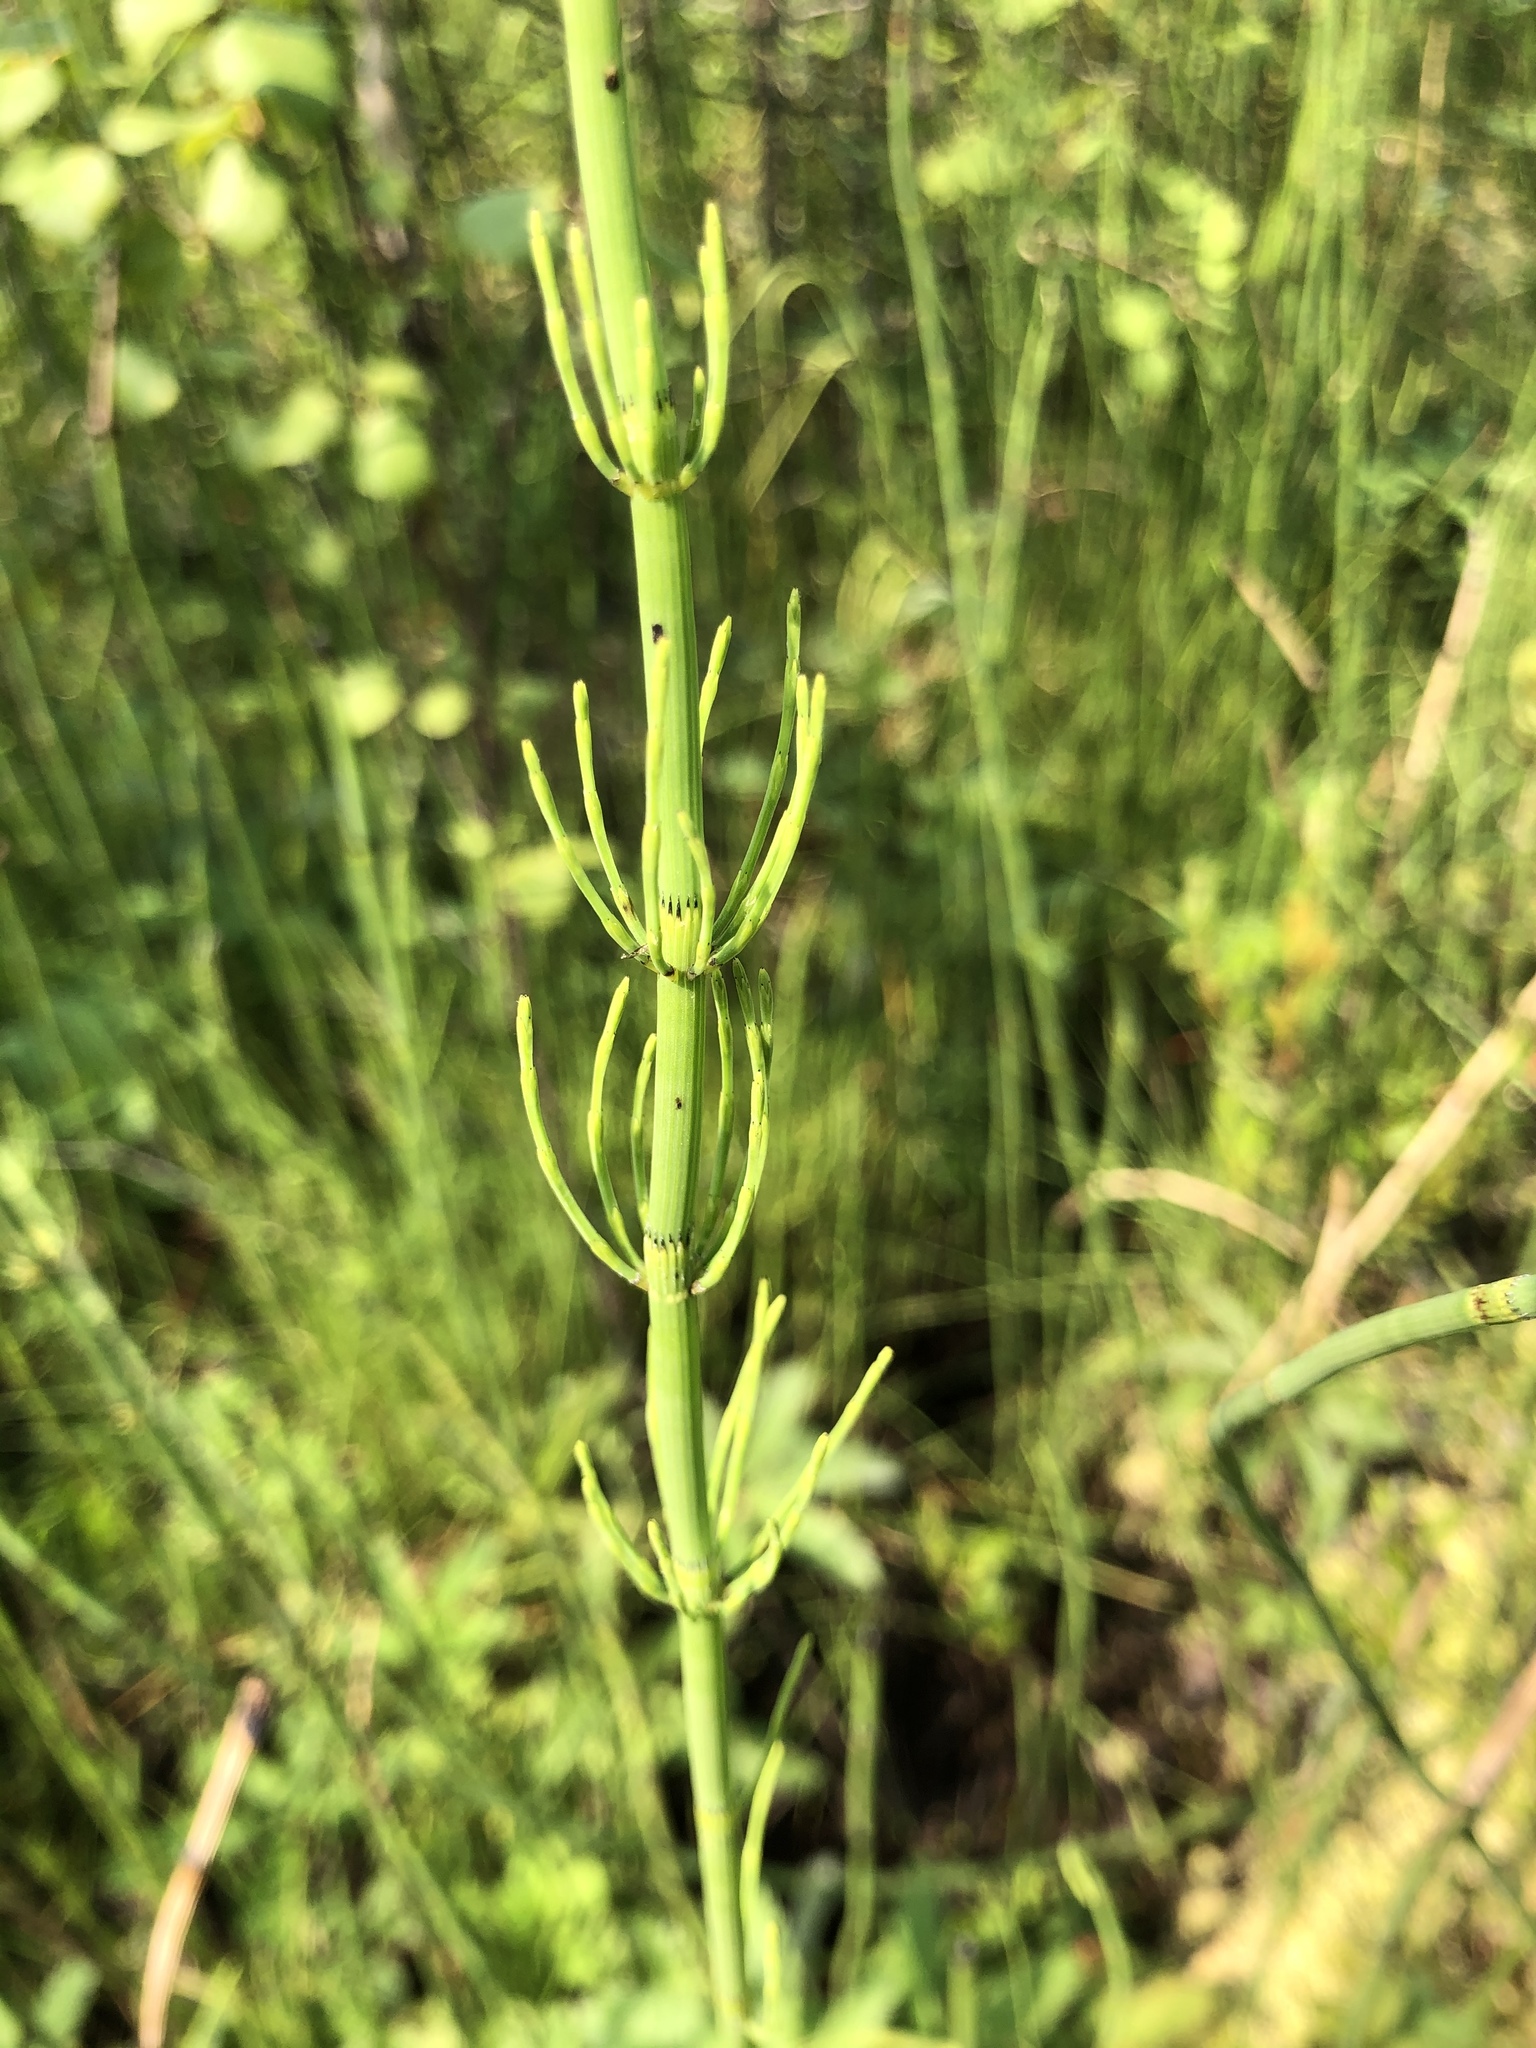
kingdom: Plantae
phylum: Tracheophyta
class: Polypodiopsida
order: Equisetales
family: Equisetaceae
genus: Equisetum
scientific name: Equisetum fluviatile
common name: Water horsetail
